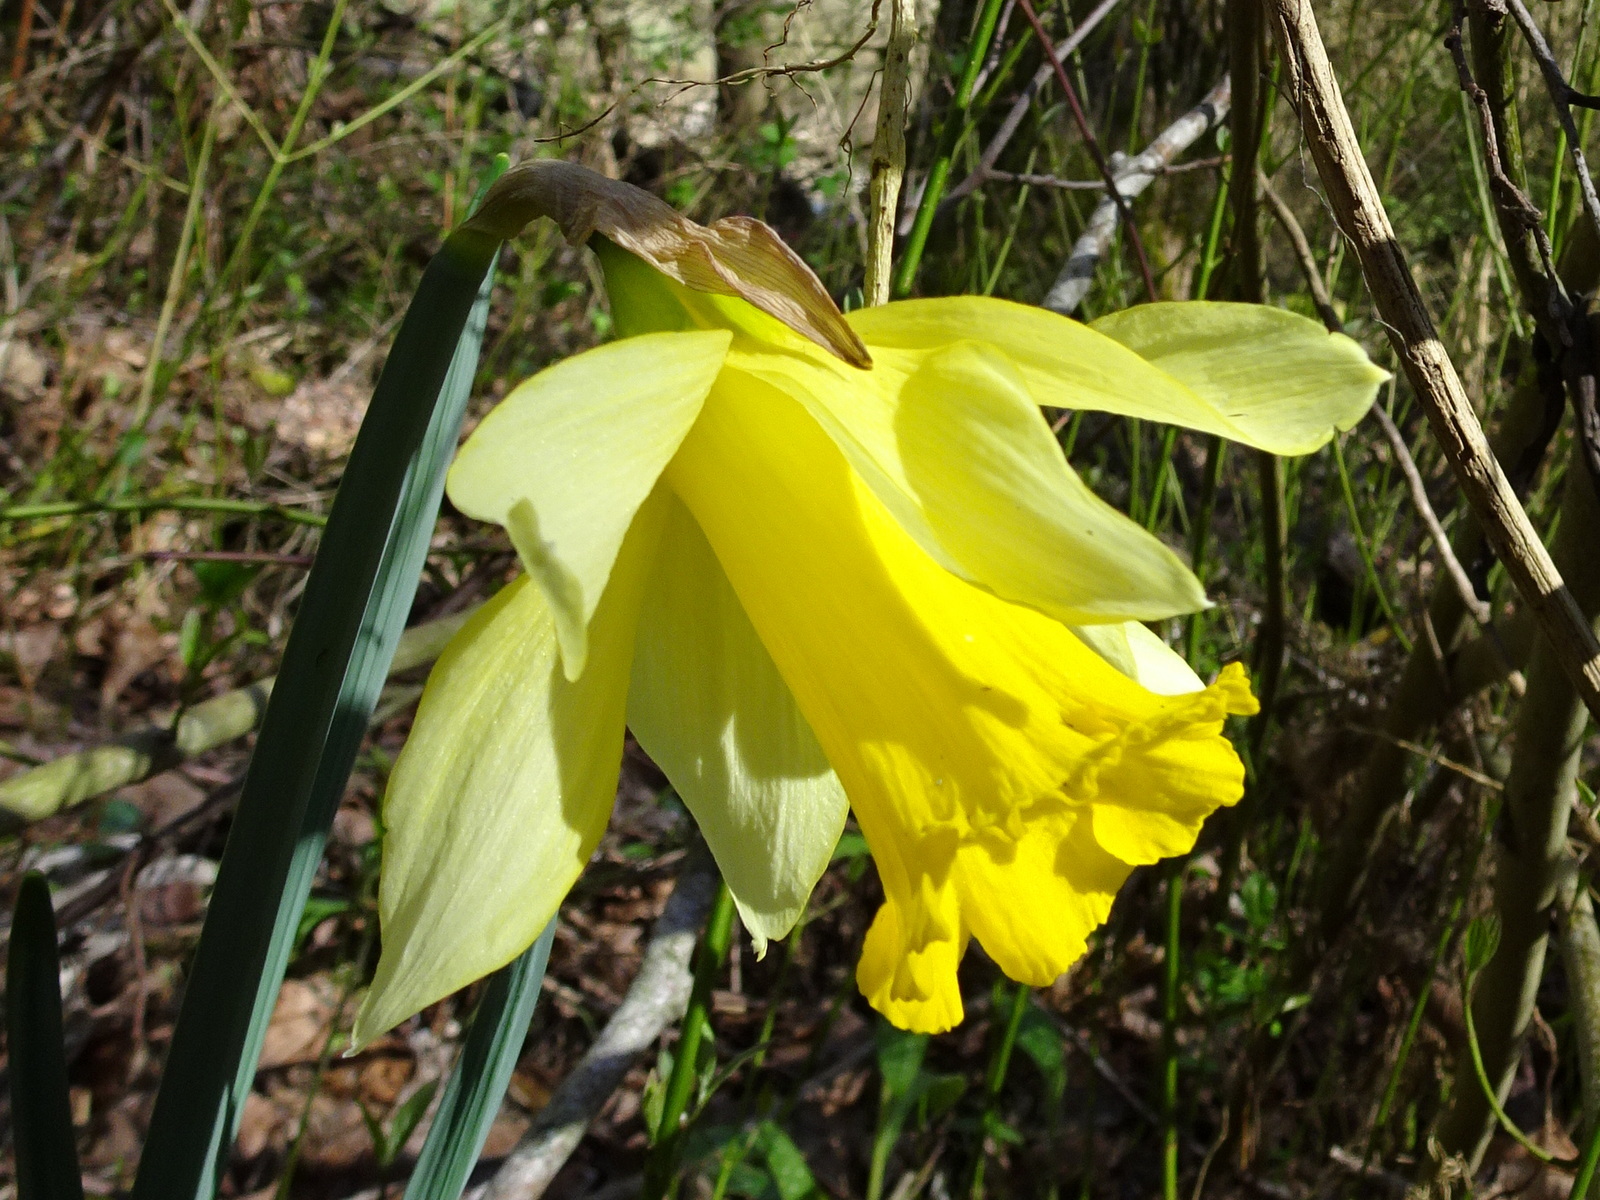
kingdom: Plantae
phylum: Tracheophyta
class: Liliopsida
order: Asparagales
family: Amaryllidaceae
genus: Narcissus
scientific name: Narcissus pseudonarcissus
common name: Daffodil
